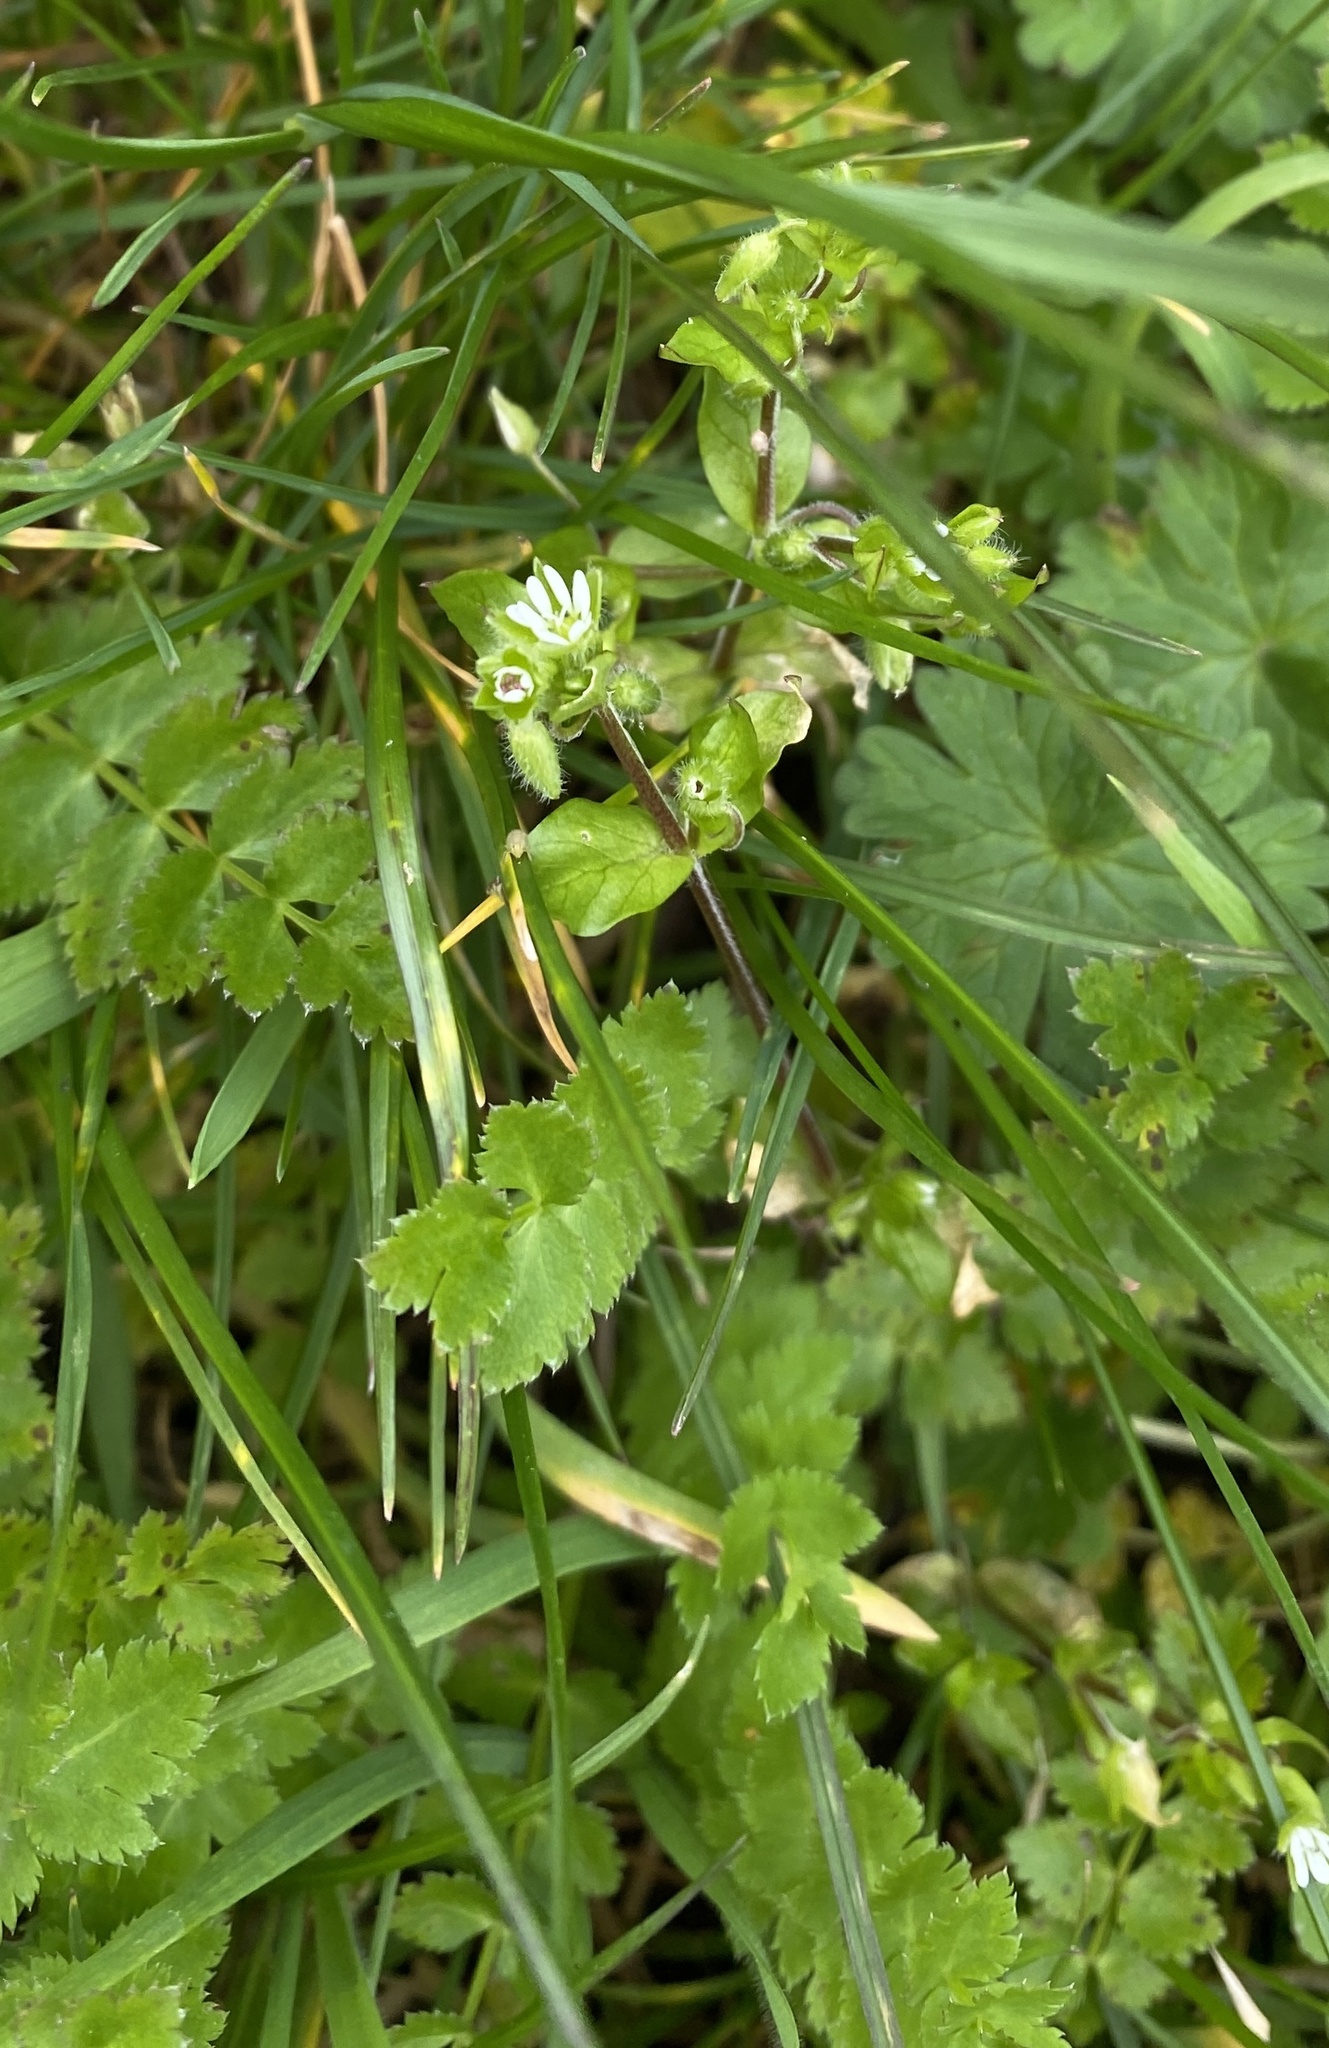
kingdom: Plantae
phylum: Tracheophyta
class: Magnoliopsida
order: Caryophyllales
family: Caryophyllaceae
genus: Stellaria
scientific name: Stellaria media
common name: Common chickweed
